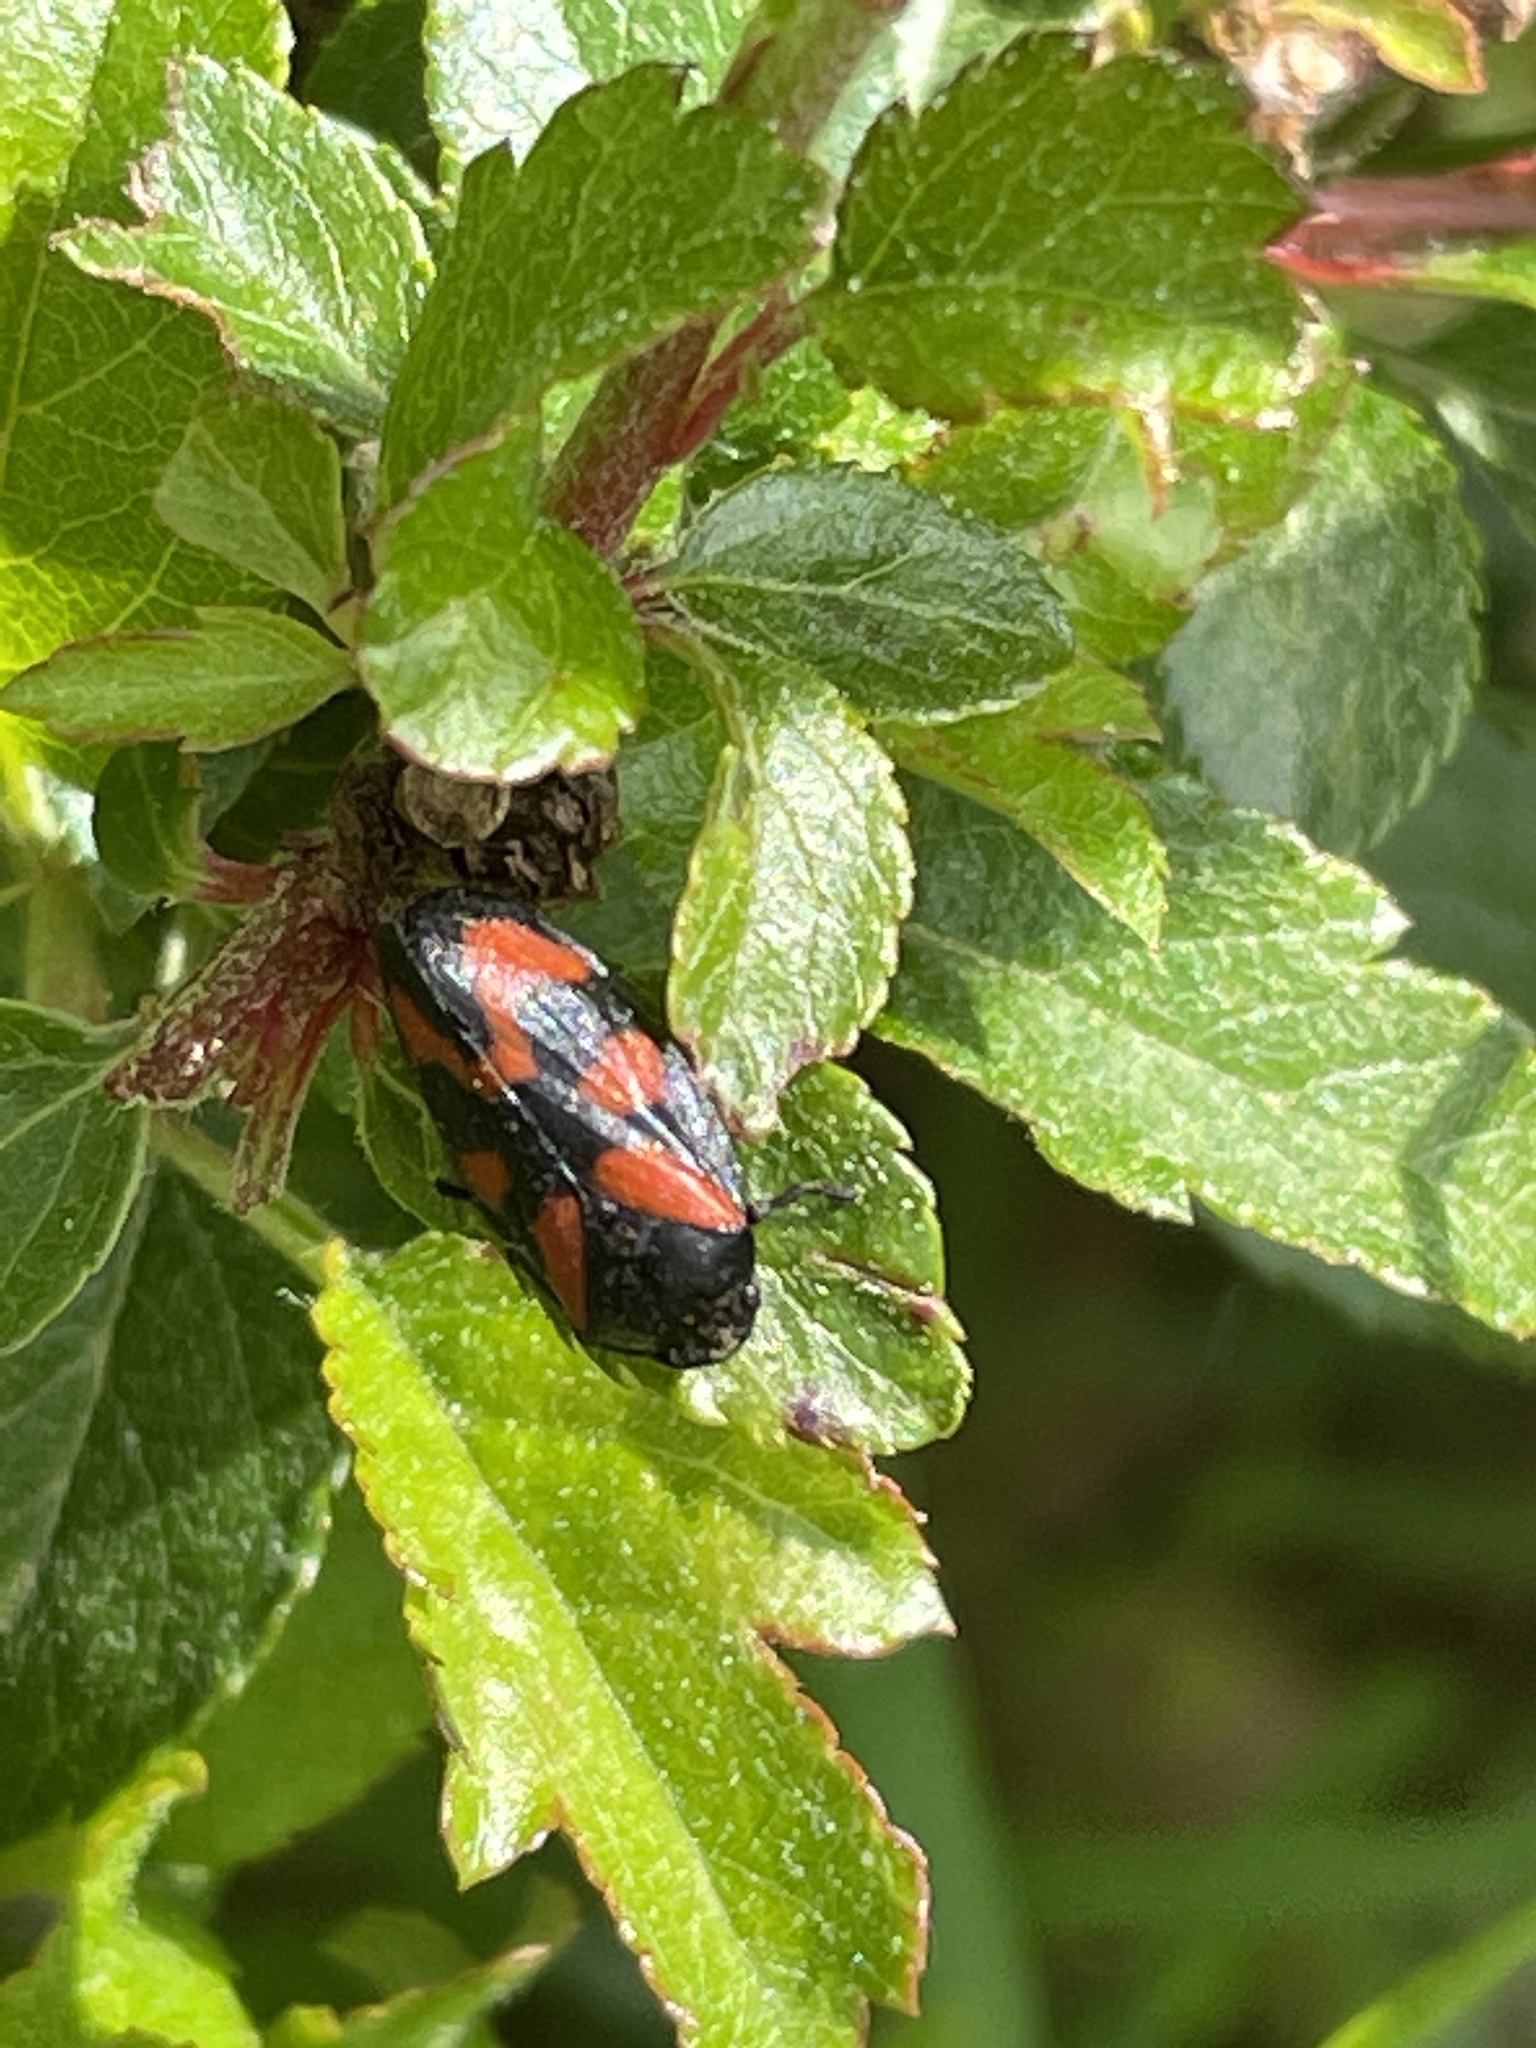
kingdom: Animalia
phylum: Arthropoda
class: Insecta
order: Hemiptera
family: Cercopidae
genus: Cercopis
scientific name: Cercopis vulnerata
